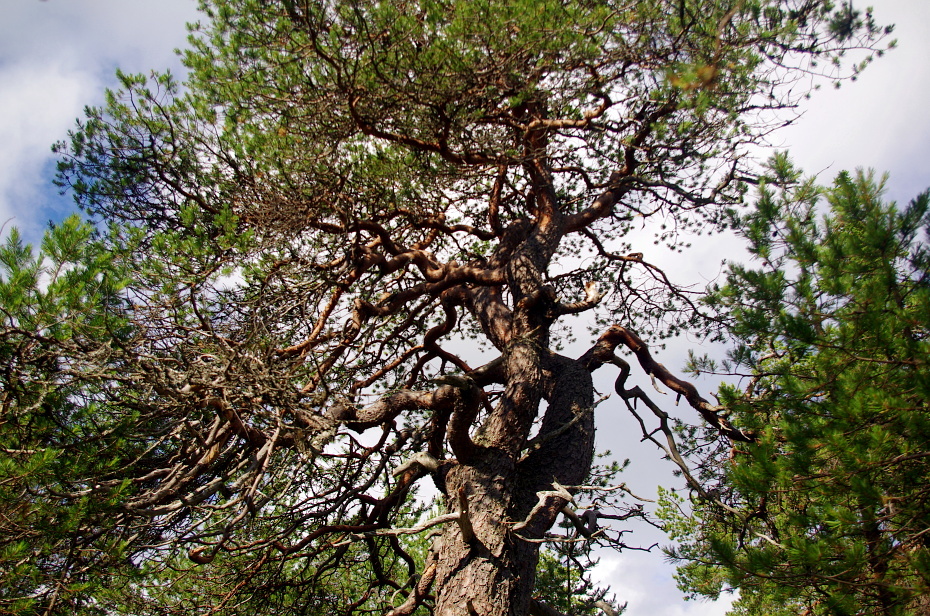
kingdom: Plantae
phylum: Tracheophyta
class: Pinopsida
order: Pinales
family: Pinaceae
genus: Pinus
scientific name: Pinus sylvestris
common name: Scots pine
